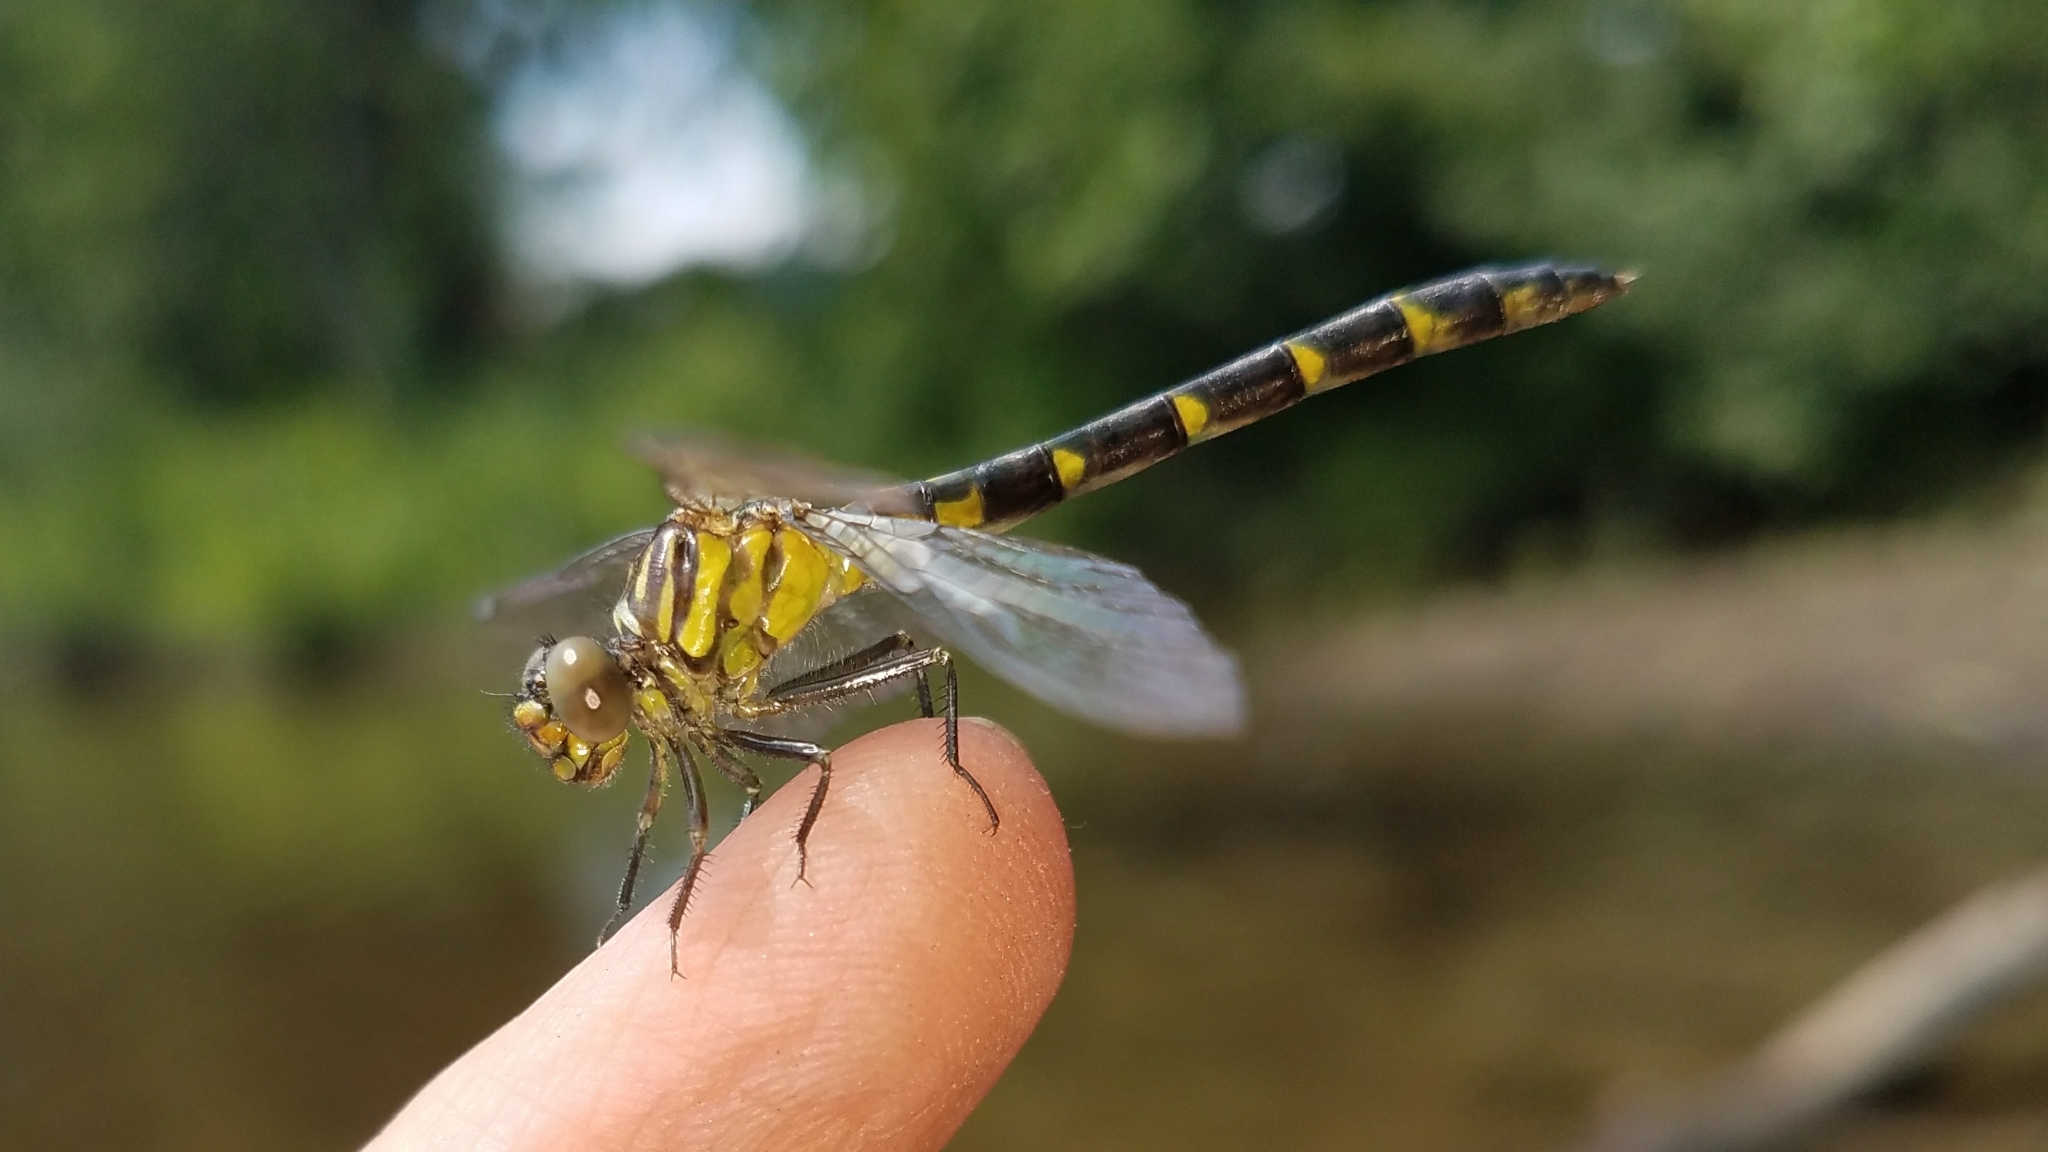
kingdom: Animalia
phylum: Arthropoda
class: Insecta
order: Odonata
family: Gomphidae
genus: Stylogomphus
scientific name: Stylogomphus albistylus
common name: Eastern least clubtail
